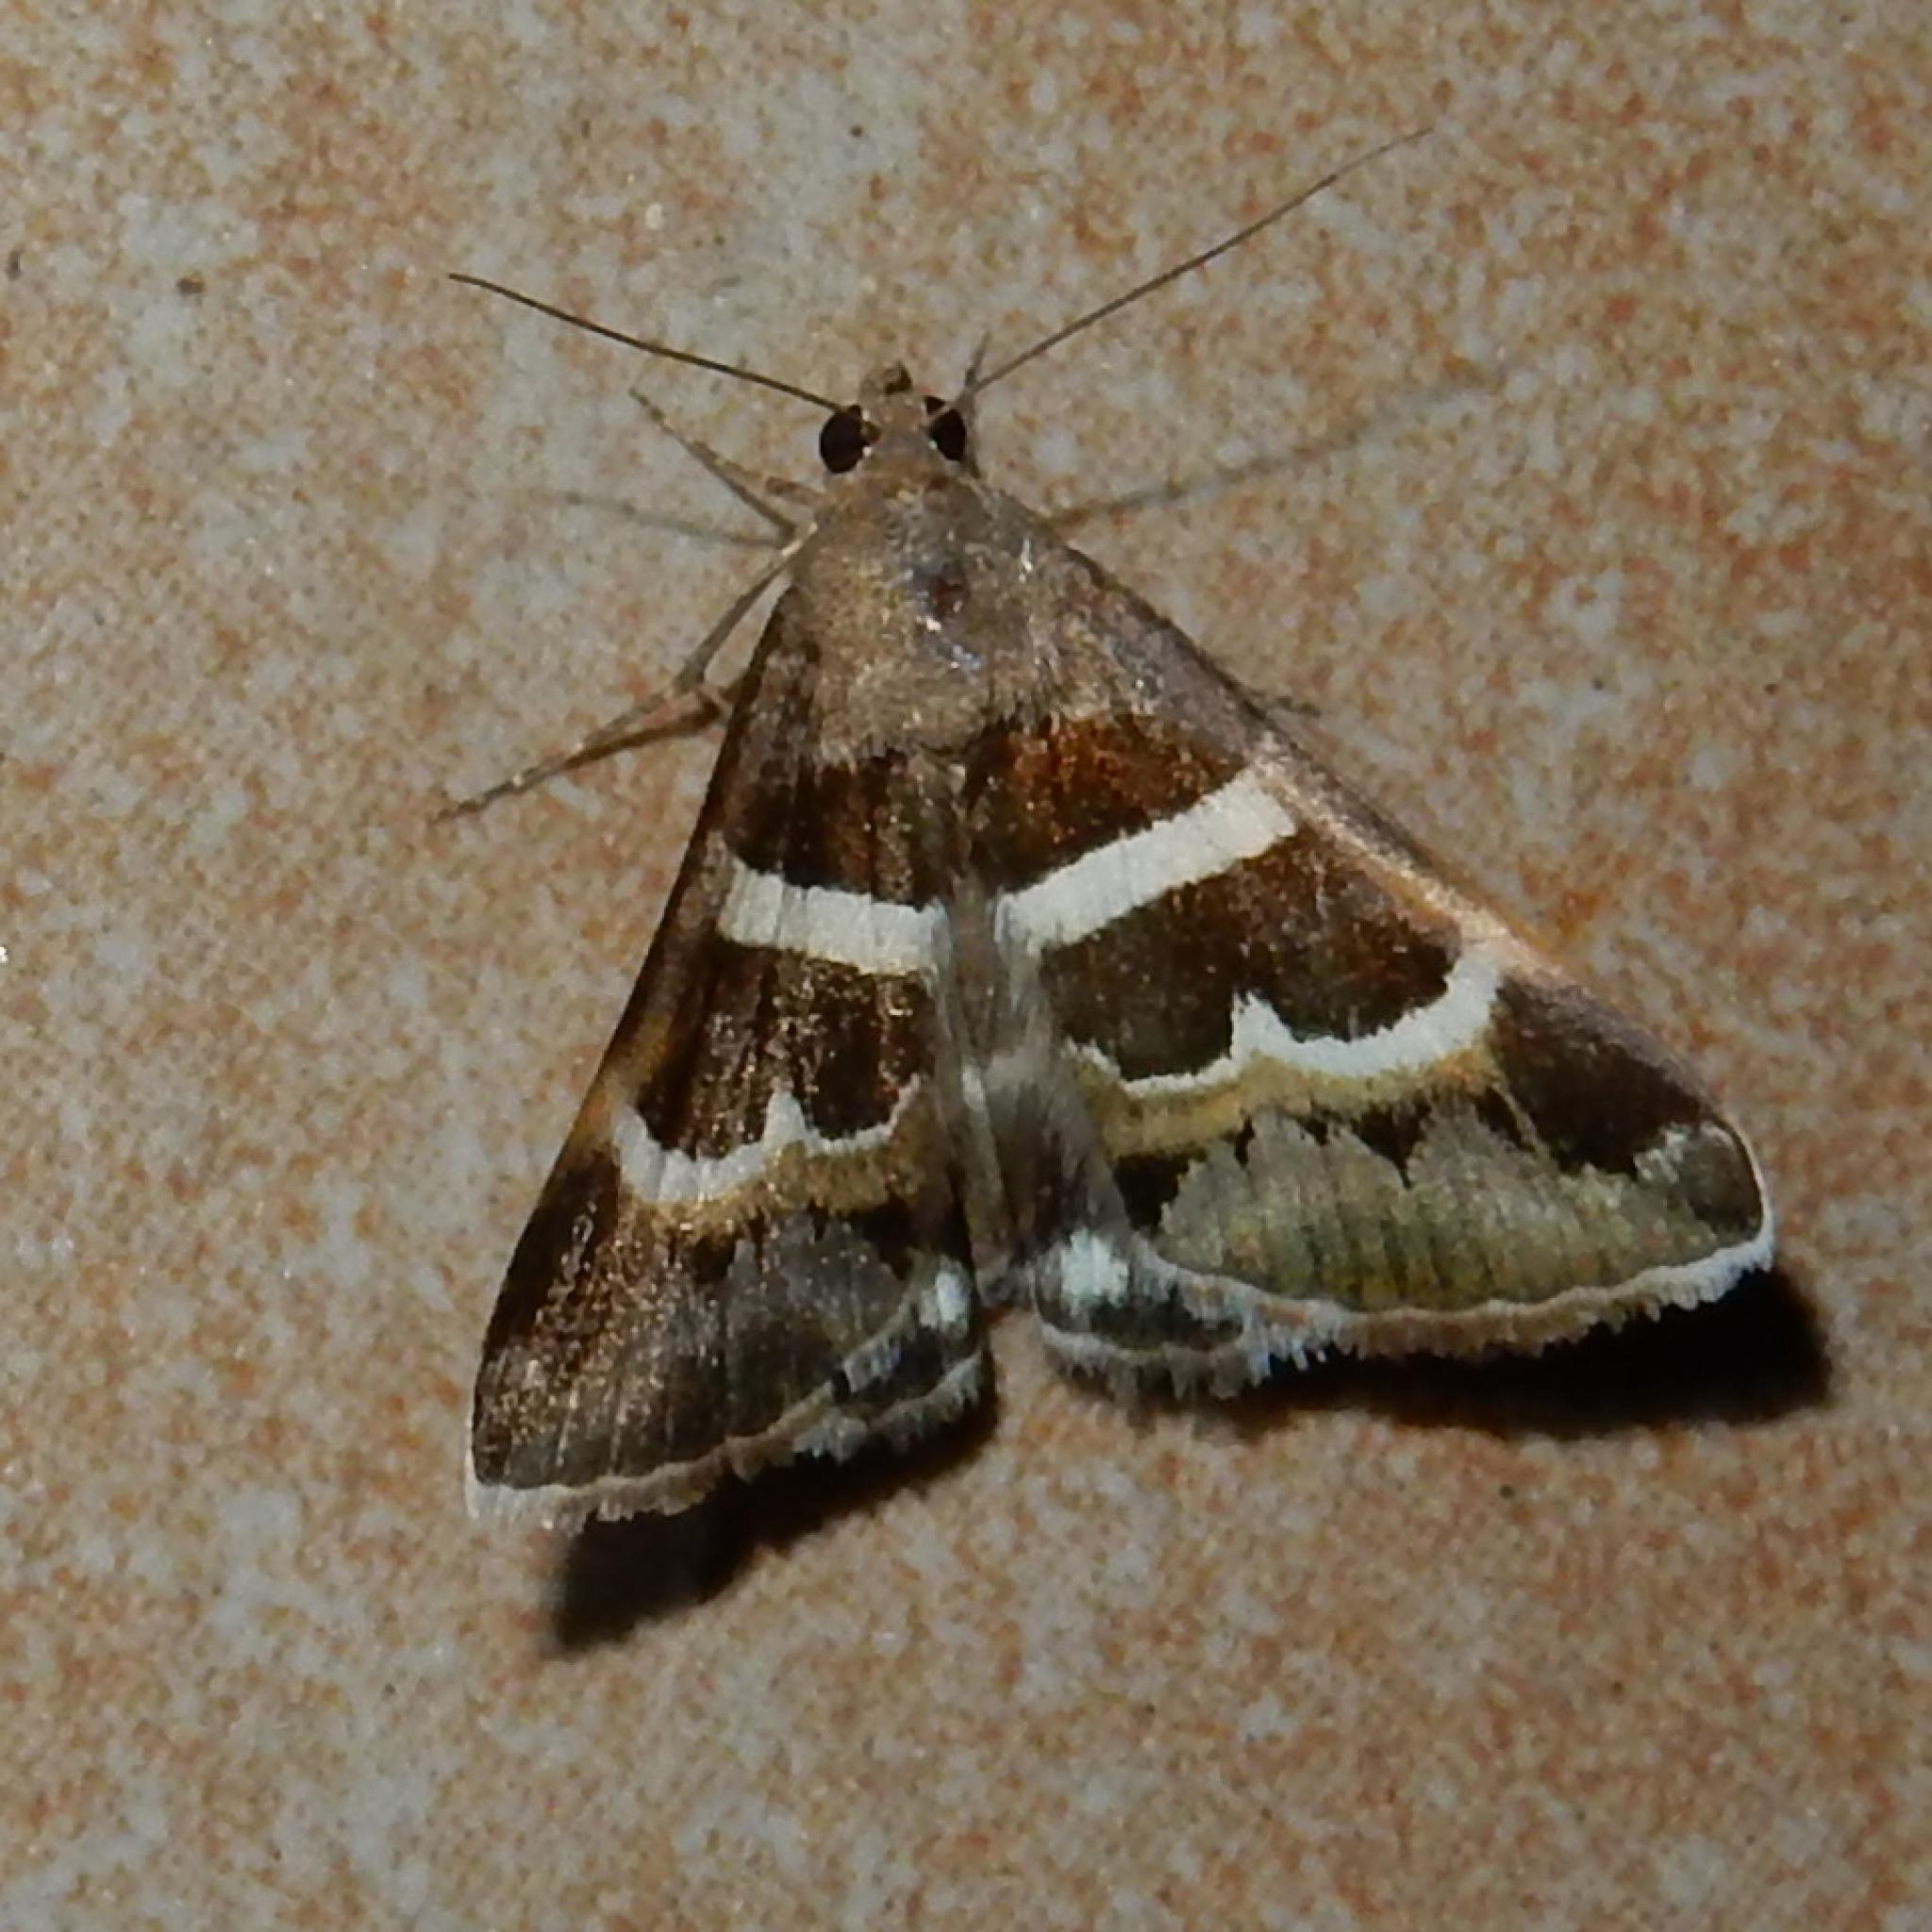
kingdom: Animalia
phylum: Arthropoda
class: Insecta
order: Lepidoptera
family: Erebidae
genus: Grammodes
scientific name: Grammodes stolida
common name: Geometrician
